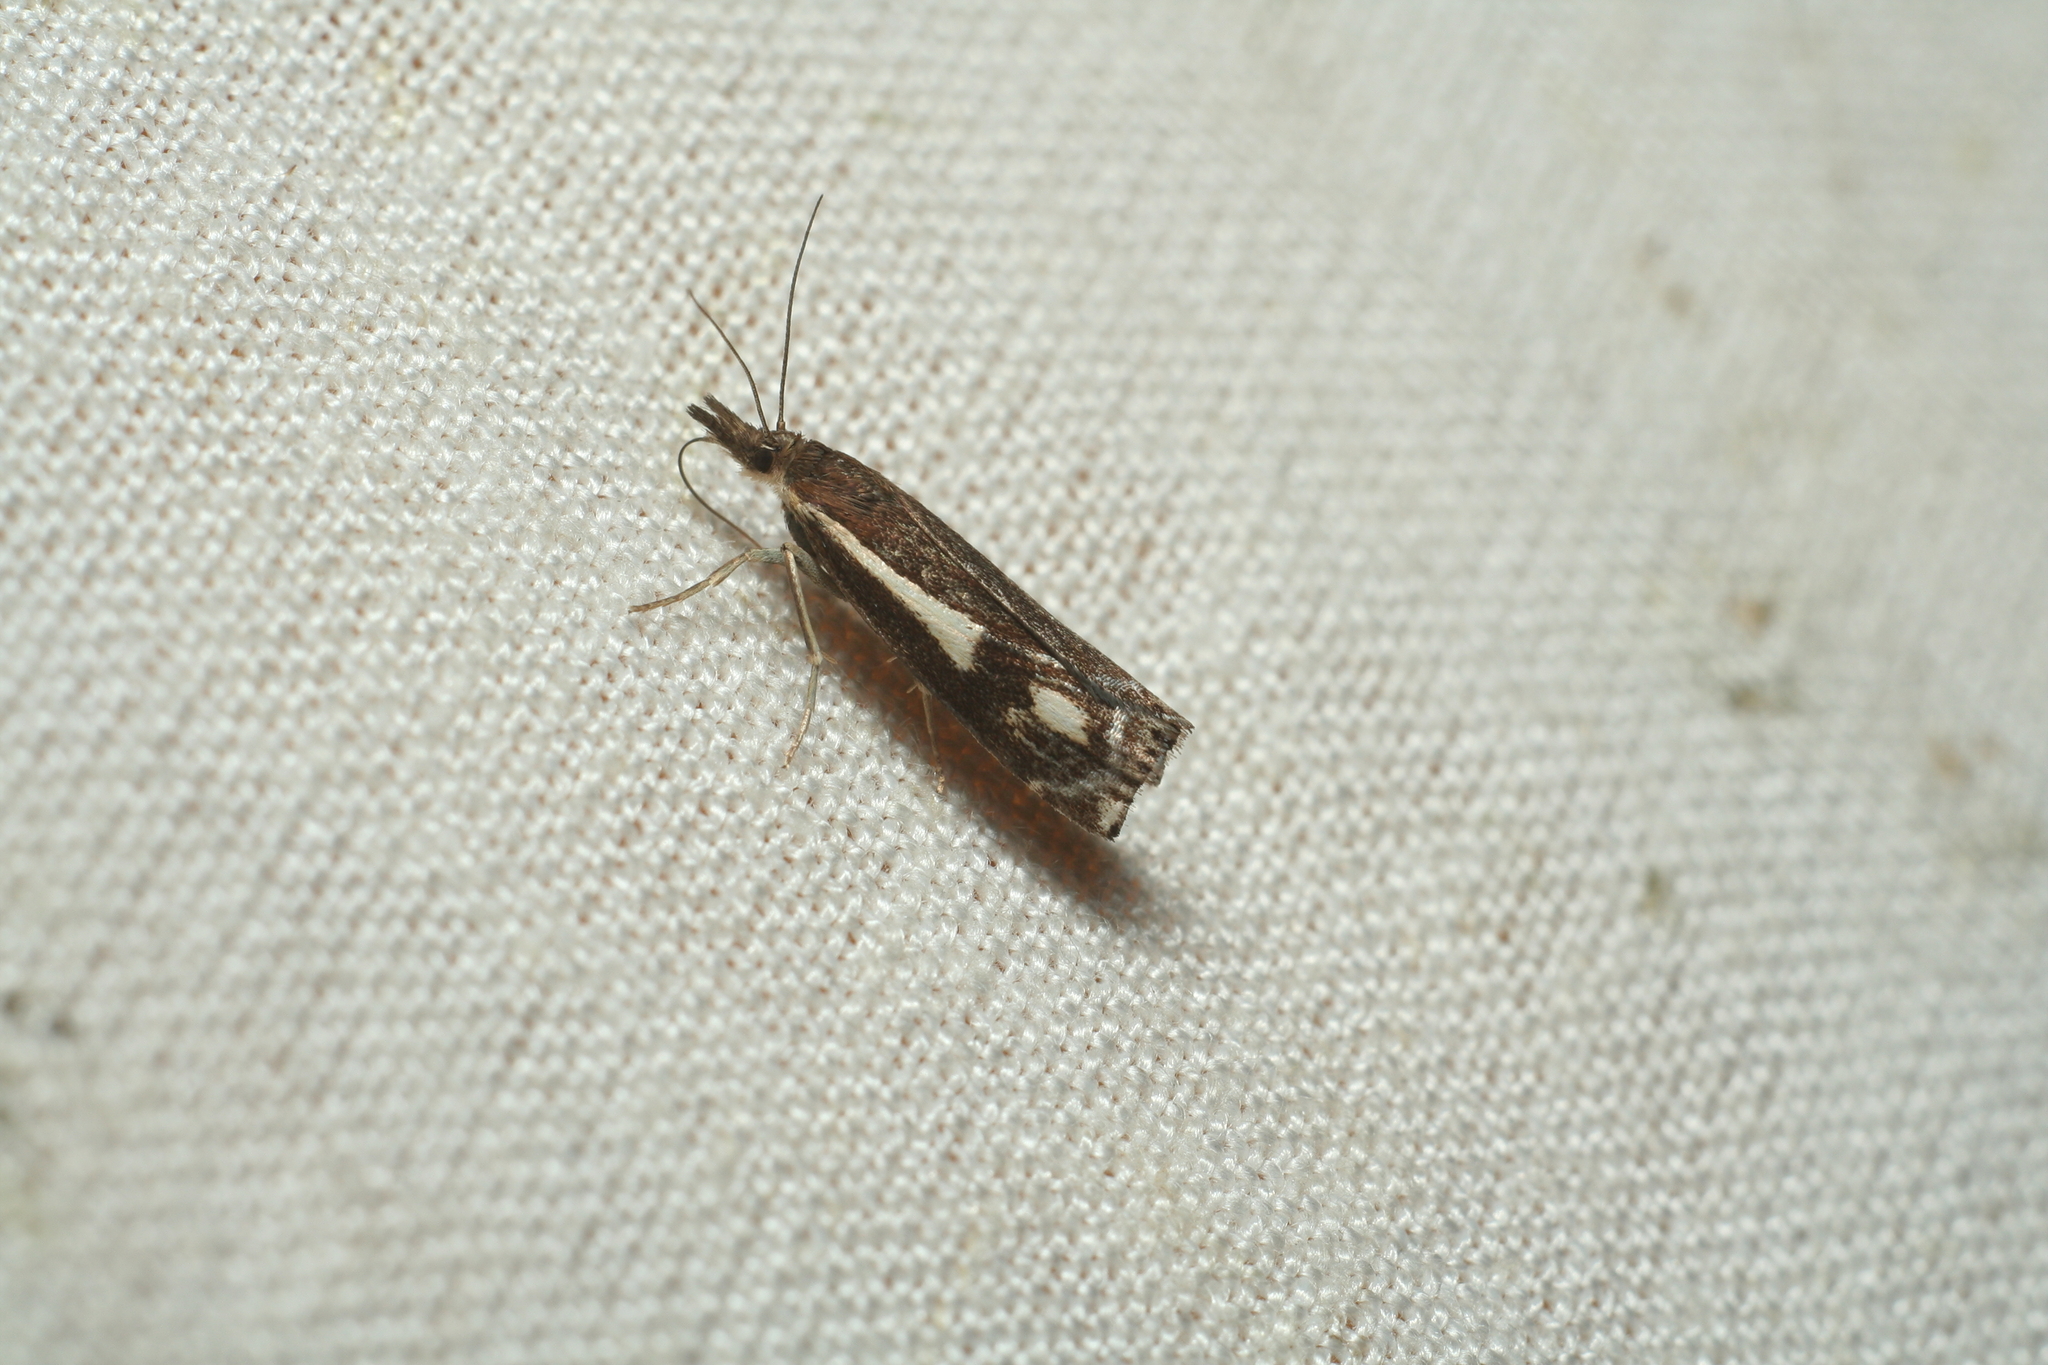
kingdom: Animalia
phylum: Arthropoda
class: Insecta
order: Lepidoptera
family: Crambidae
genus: Crambus
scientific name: Crambus heringiellus
